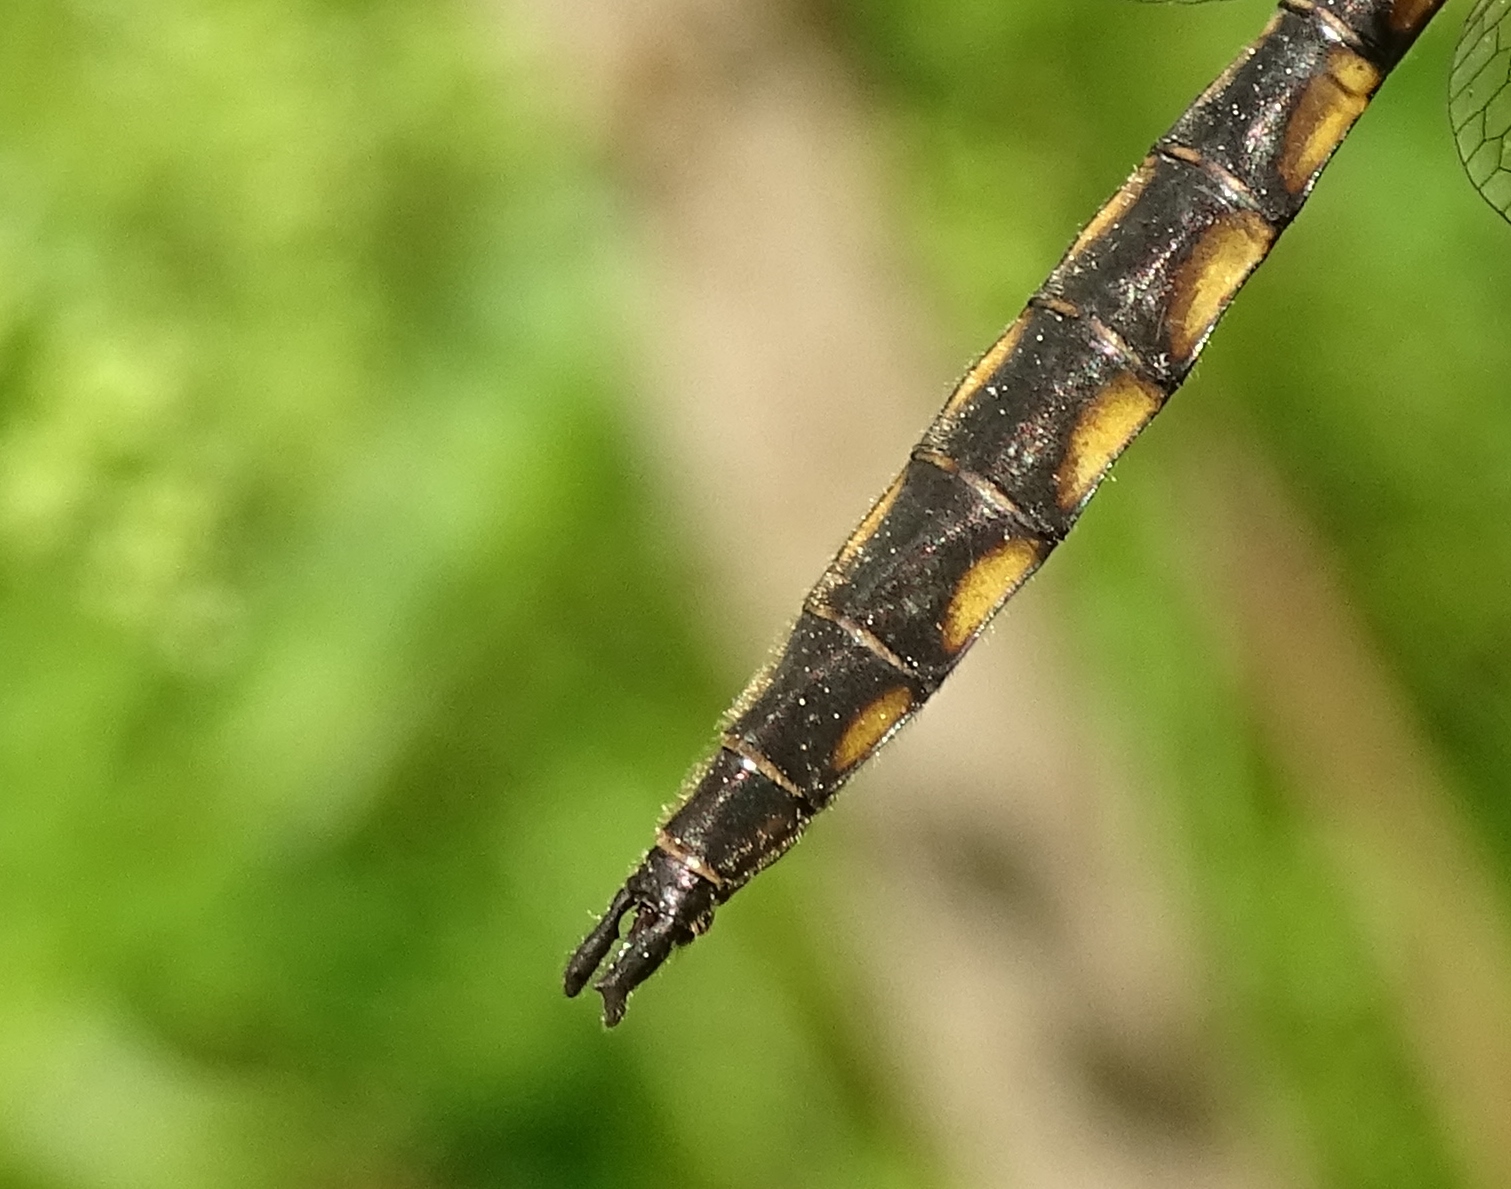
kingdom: Animalia
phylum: Arthropoda
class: Insecta
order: Odonata
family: Corduliidae
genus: Epitheca
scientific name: Epitheca canis
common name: Beaverpond baskettail
